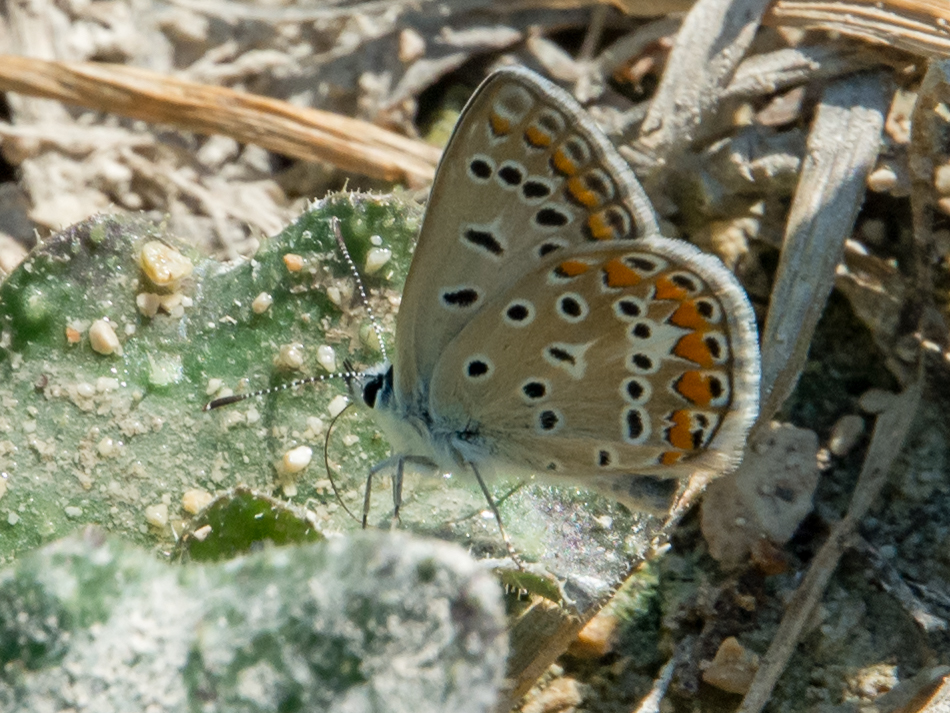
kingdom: Animalia
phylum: Arthropoda
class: Insecta
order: Lepidoptera
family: Lycaenidae
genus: Polyommatus
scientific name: Polyommatus celina
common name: Austaut's blue
